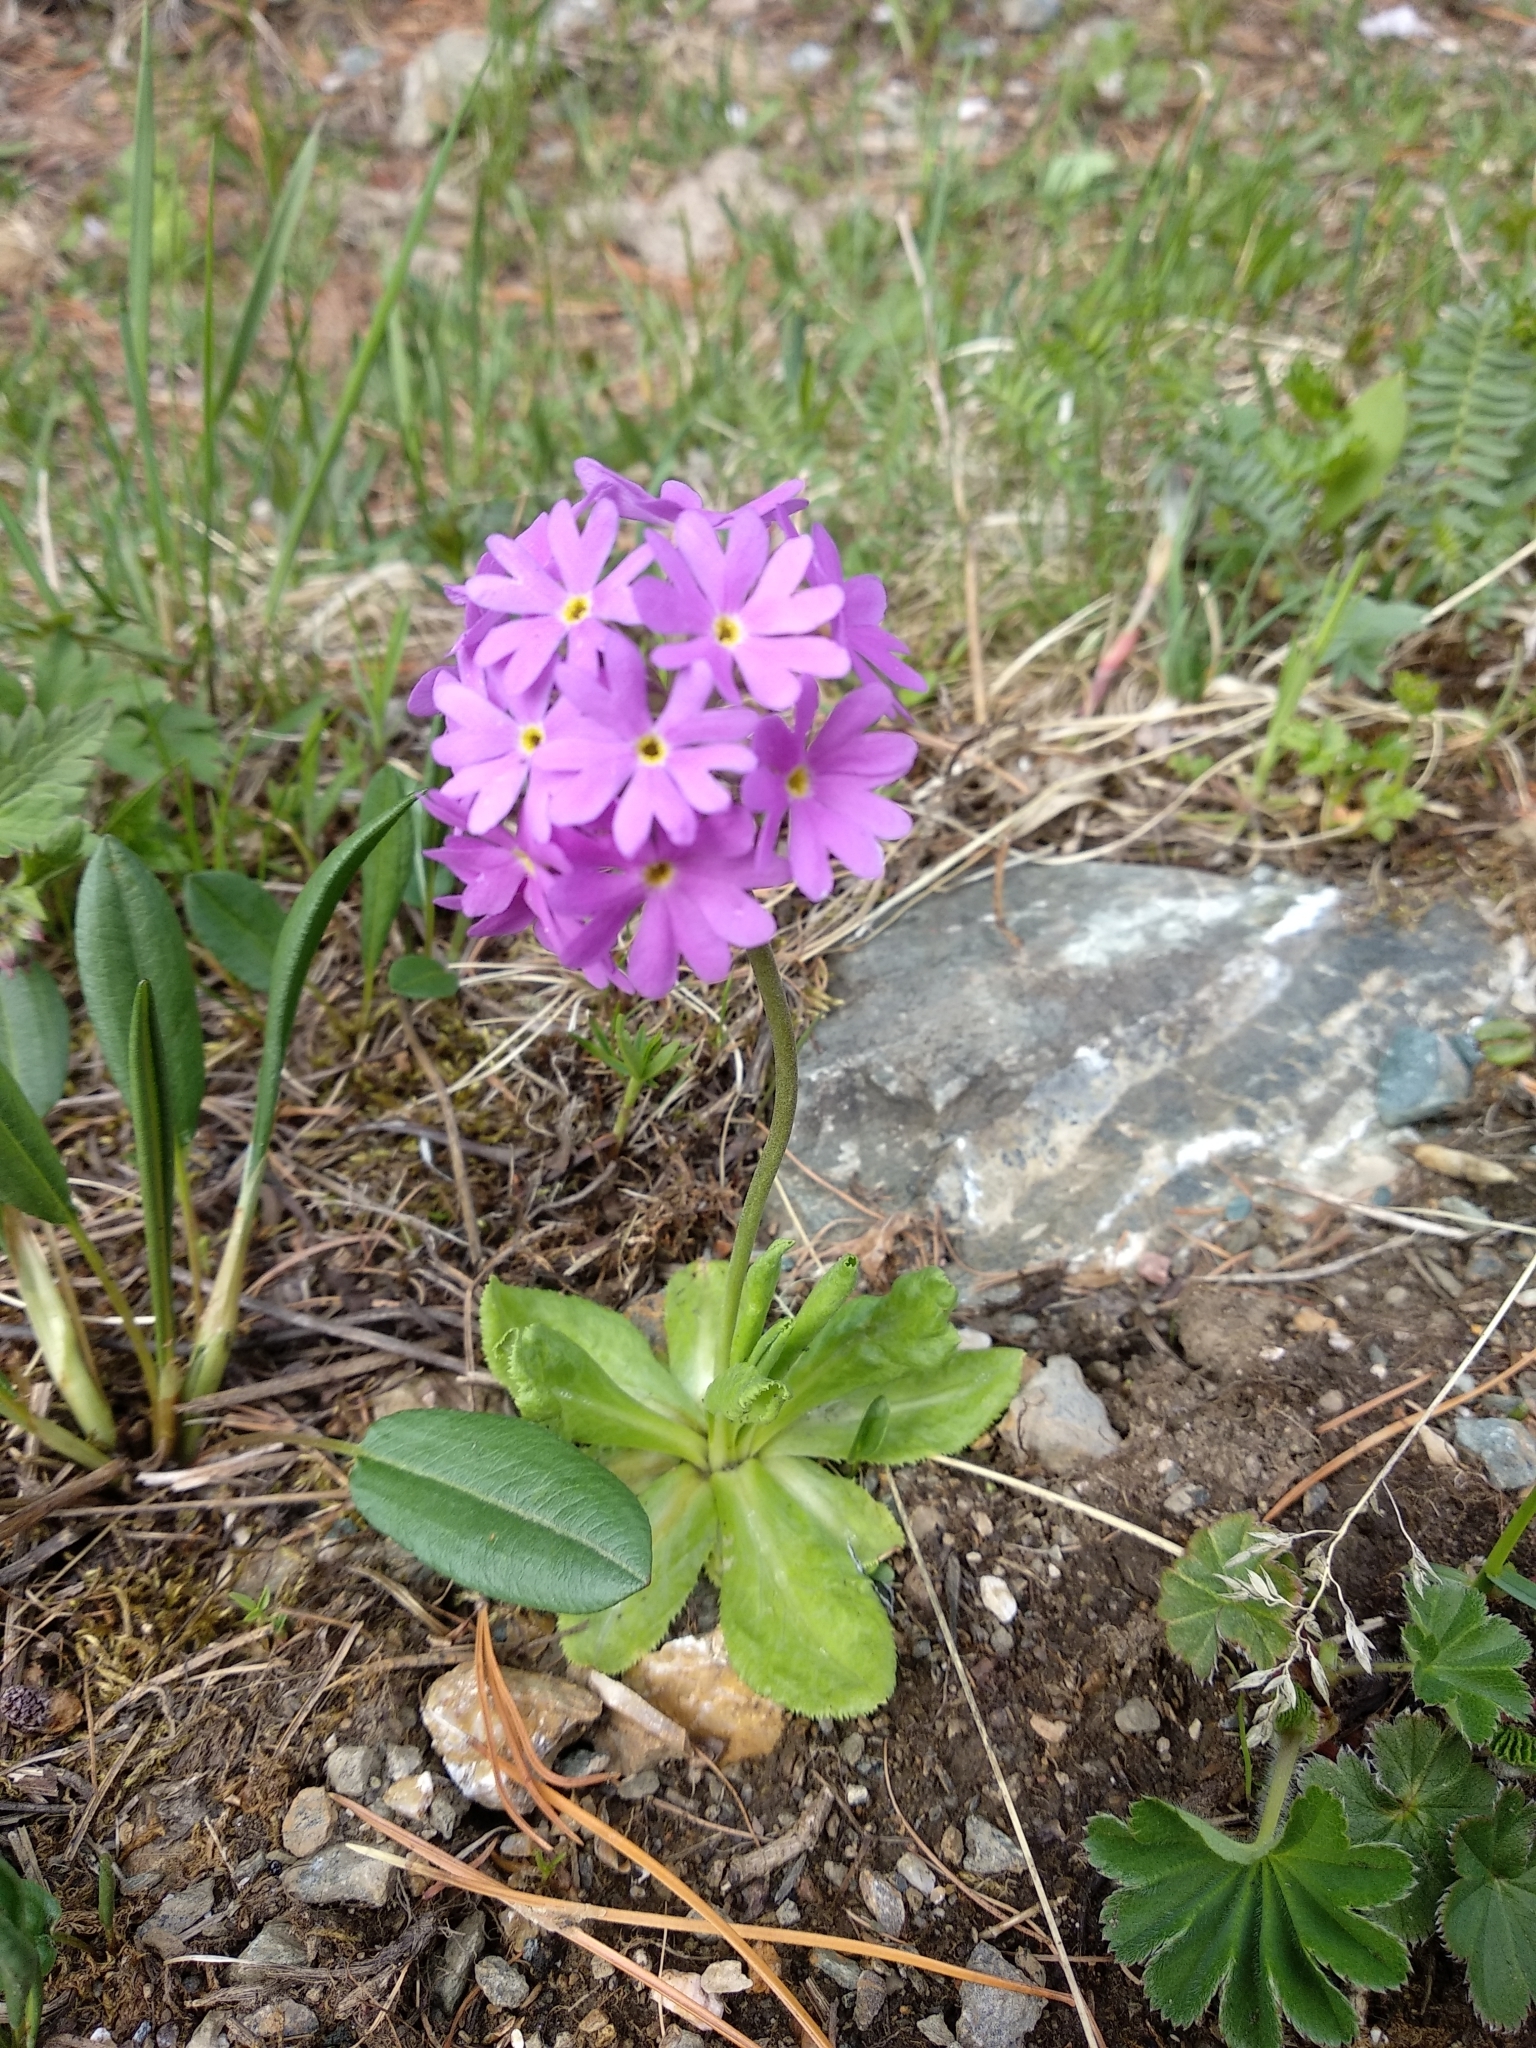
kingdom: Plantae
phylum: Tracheophyta
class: Magnoliopsida
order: Ericales
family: Primulaceae
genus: Primula
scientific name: Primula algida
